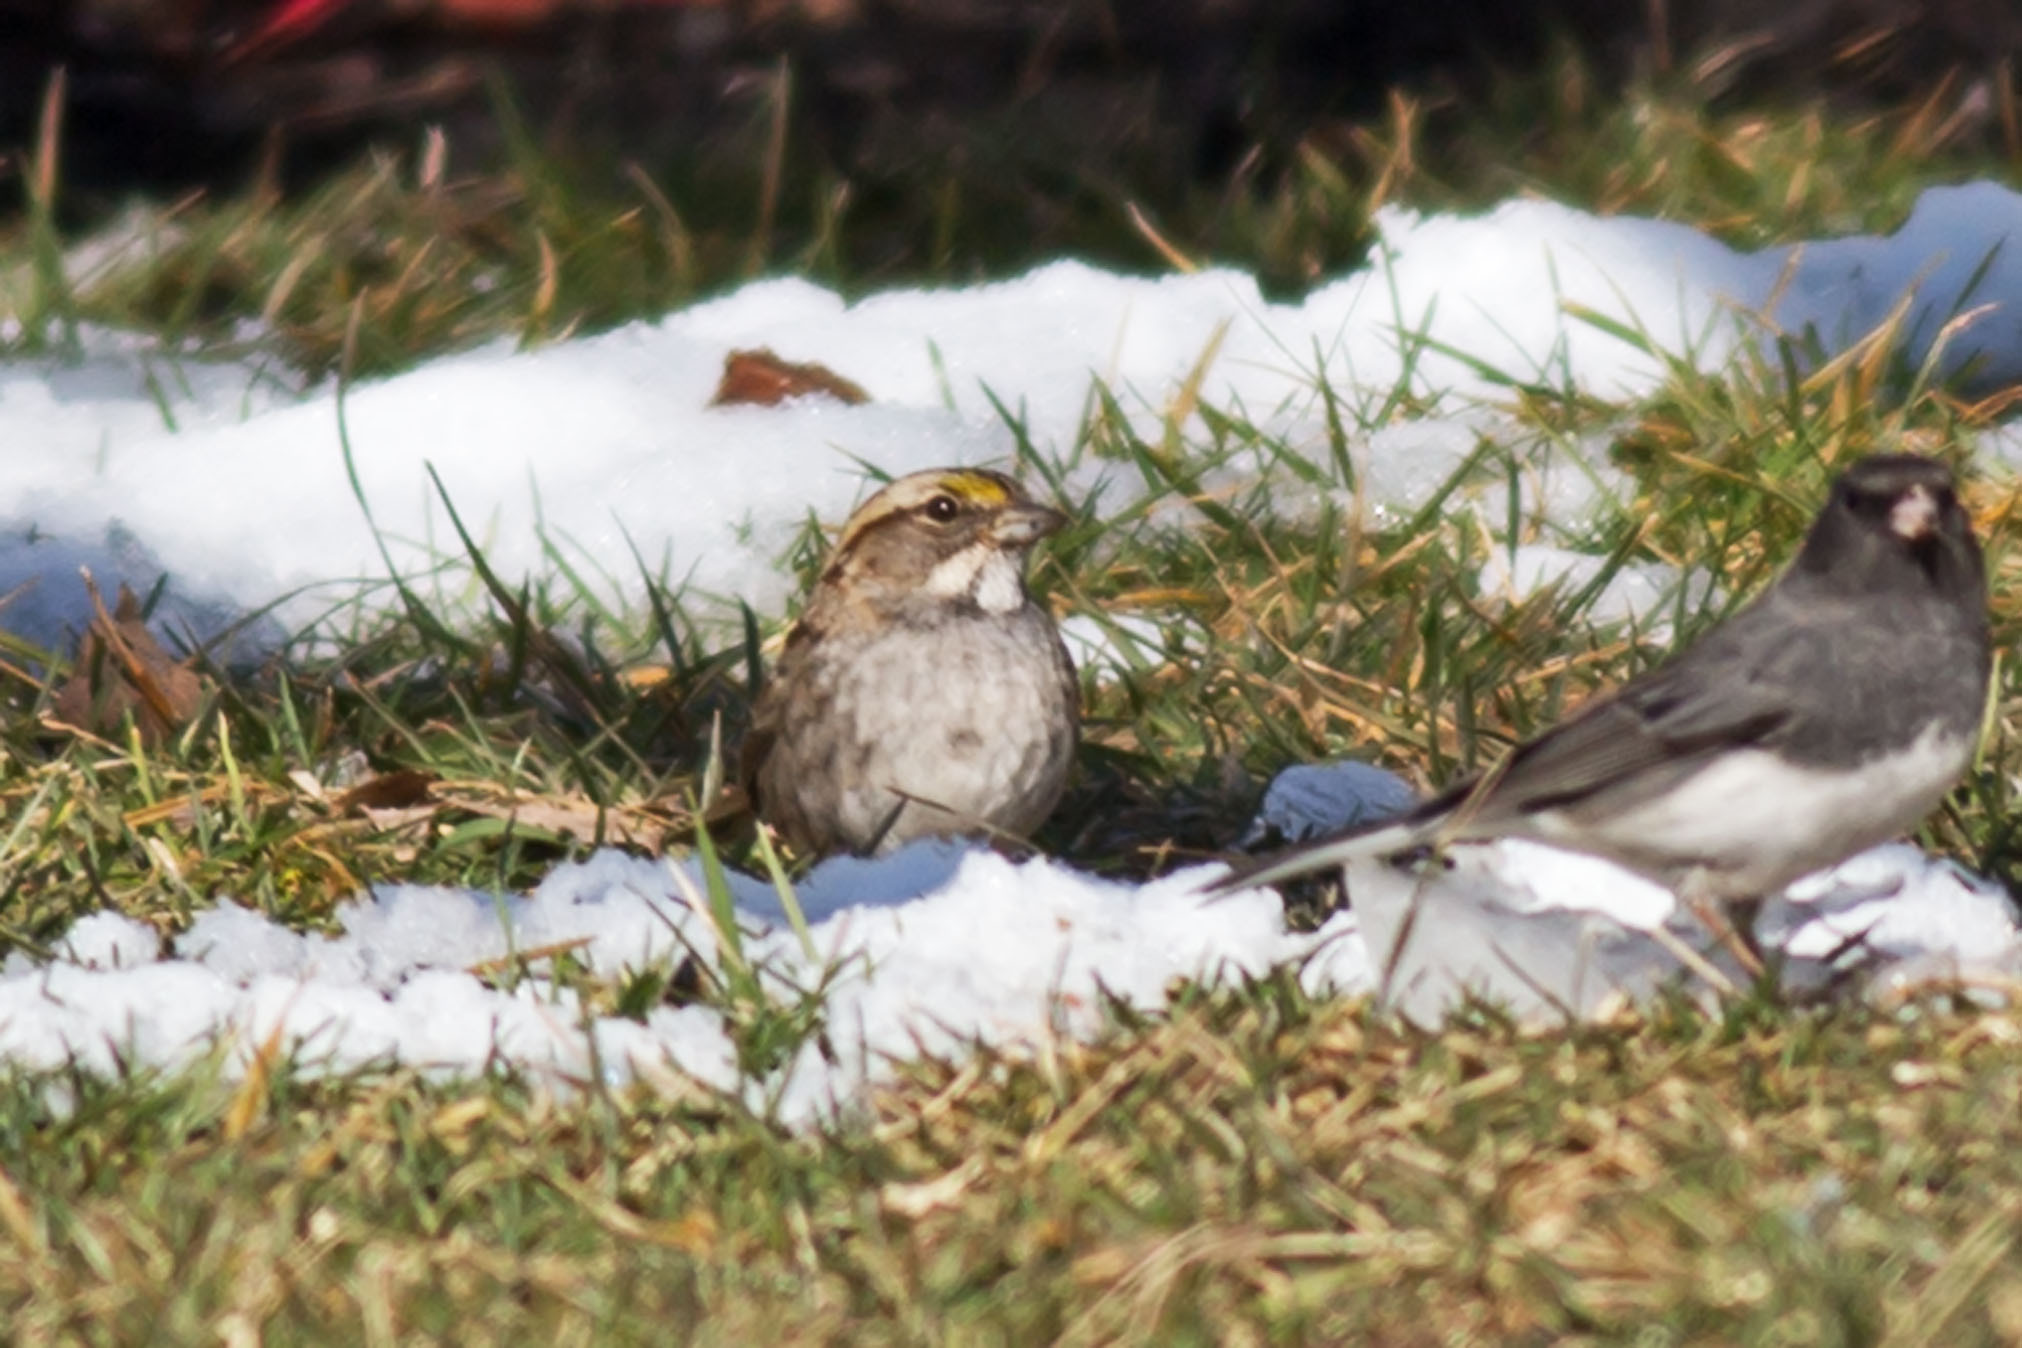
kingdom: Animalia
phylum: Chordata
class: Aves
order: Passeriformes
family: Passerellidae
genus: Zonotrichia
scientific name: Zonotrichia albicollis
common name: White-throated sparrow
